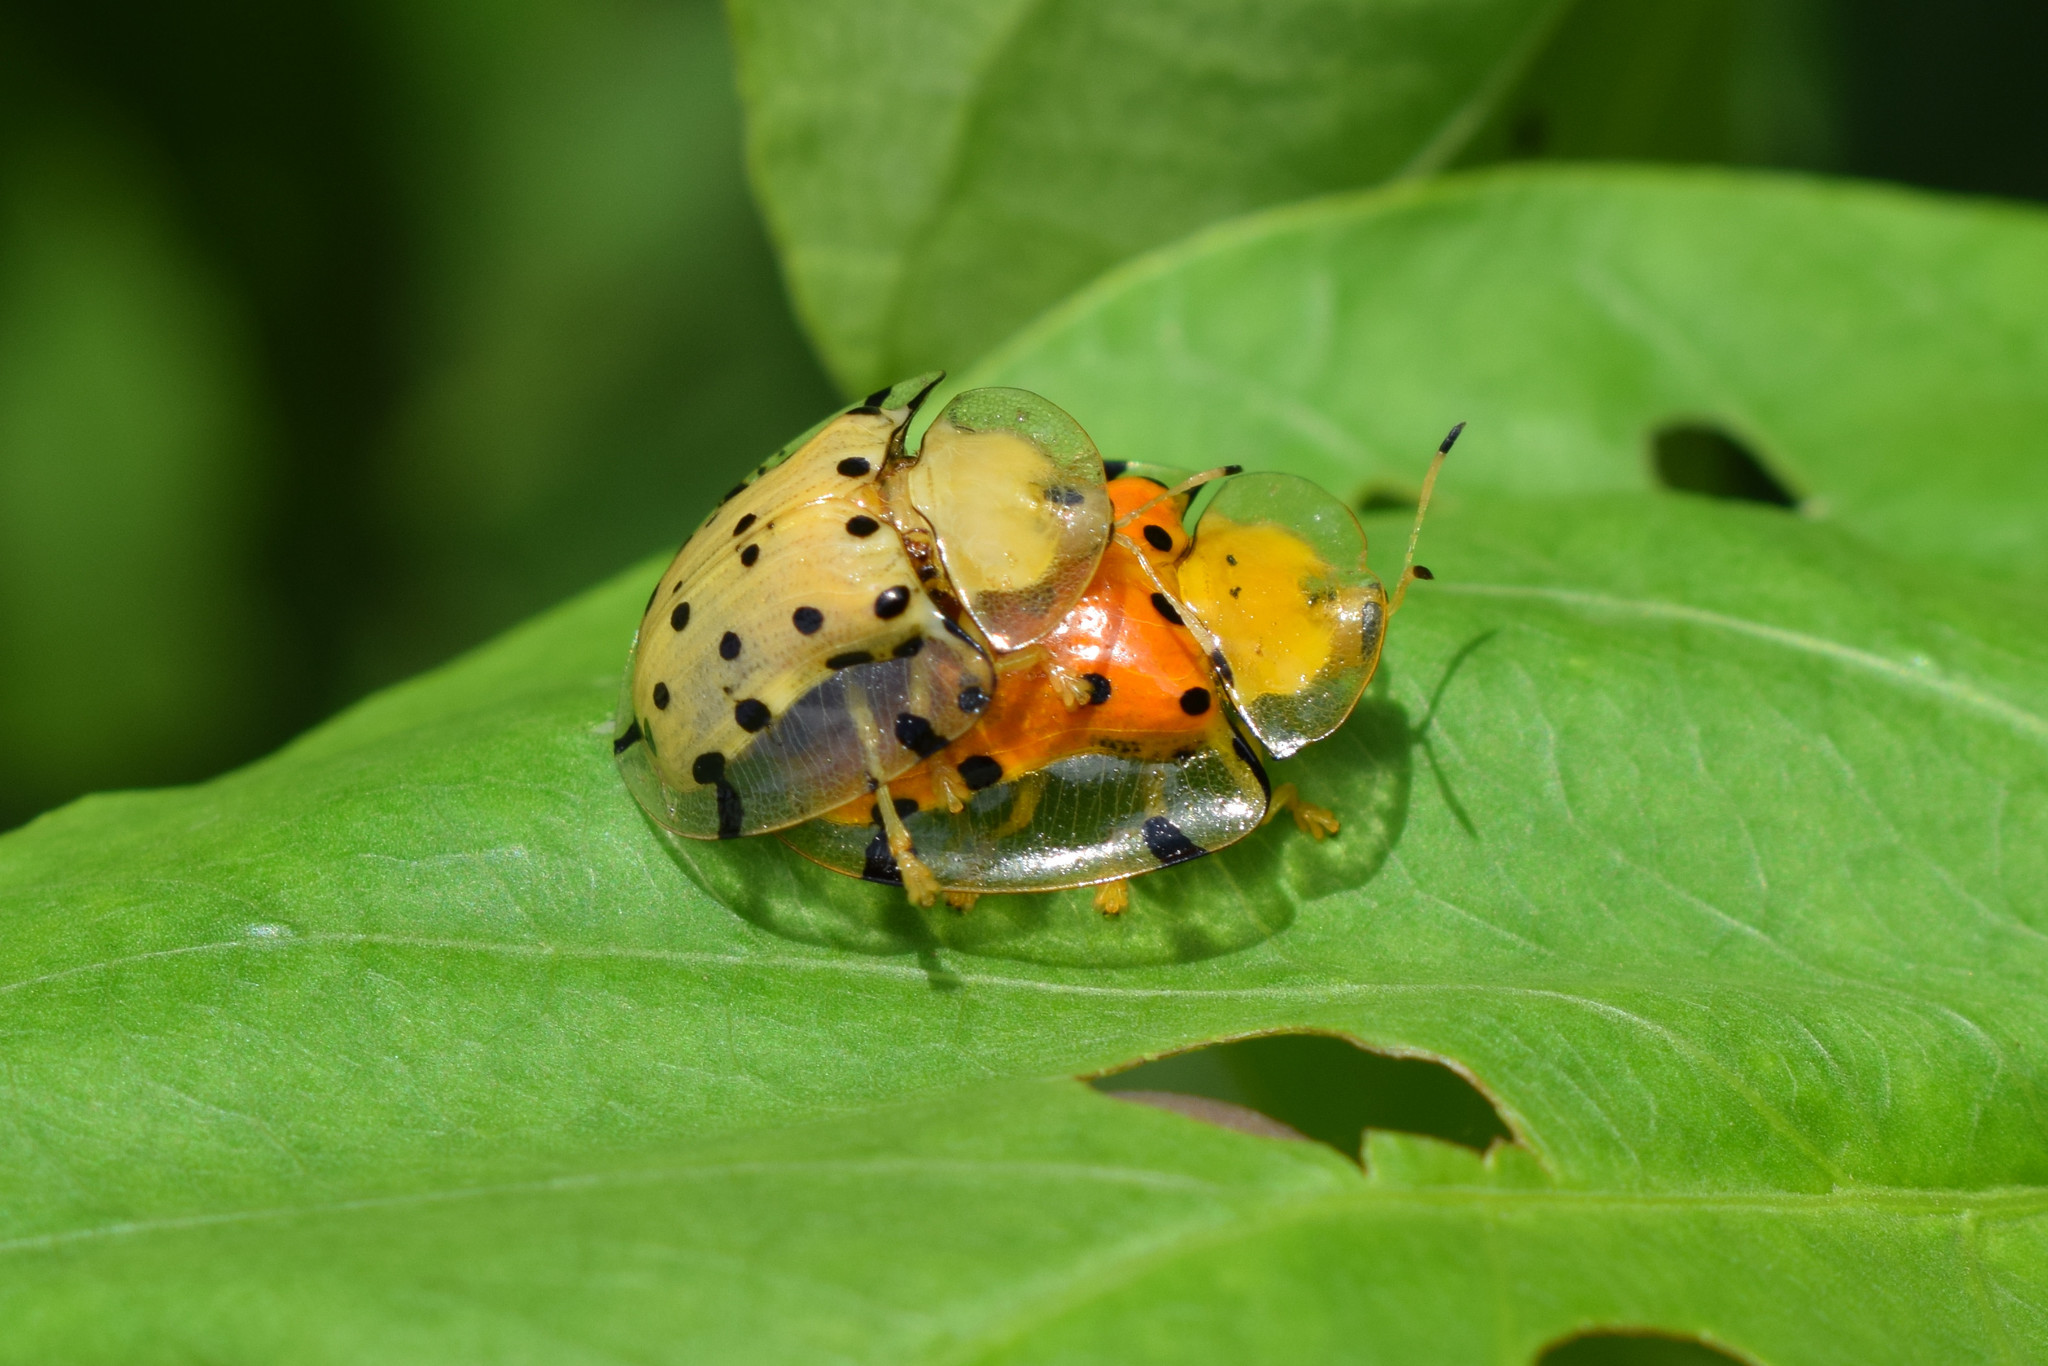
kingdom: Animalia
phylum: Arthropoda
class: Insecta
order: Coleoptera
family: Chrysomelidae
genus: Aspidimorpha
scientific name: Aspidimorpha miliaris
